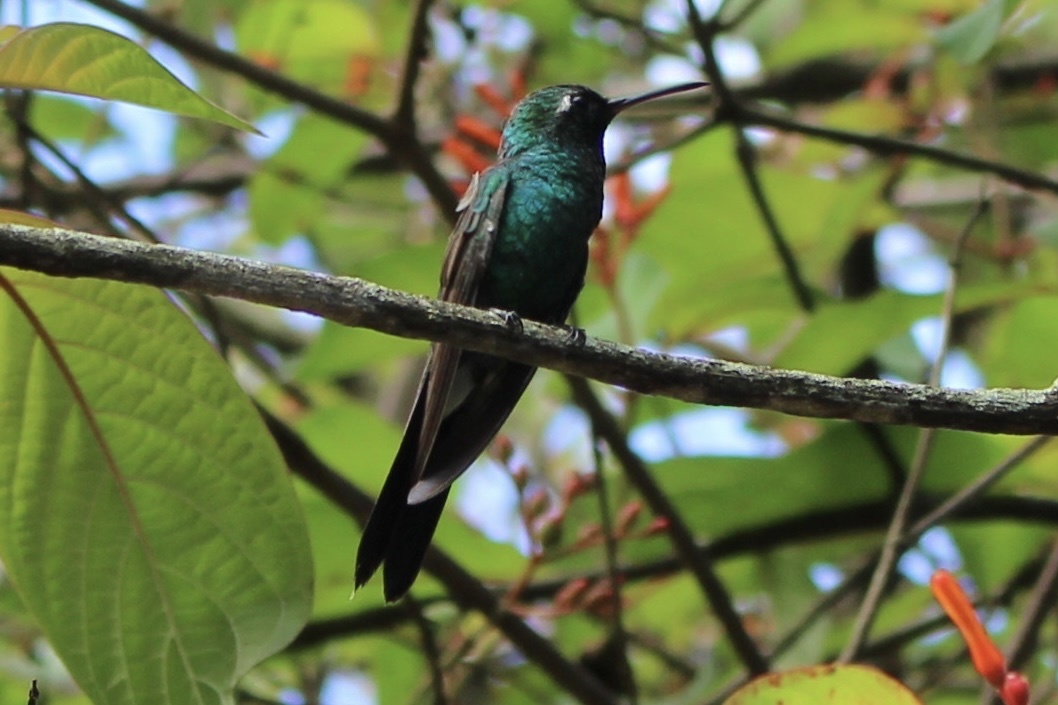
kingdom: Animalia
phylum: Chordata
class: Aves
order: Apodiformes
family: Trochilidae
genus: Riccordia
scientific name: Riccordia ricordii
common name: Cuban emerald
